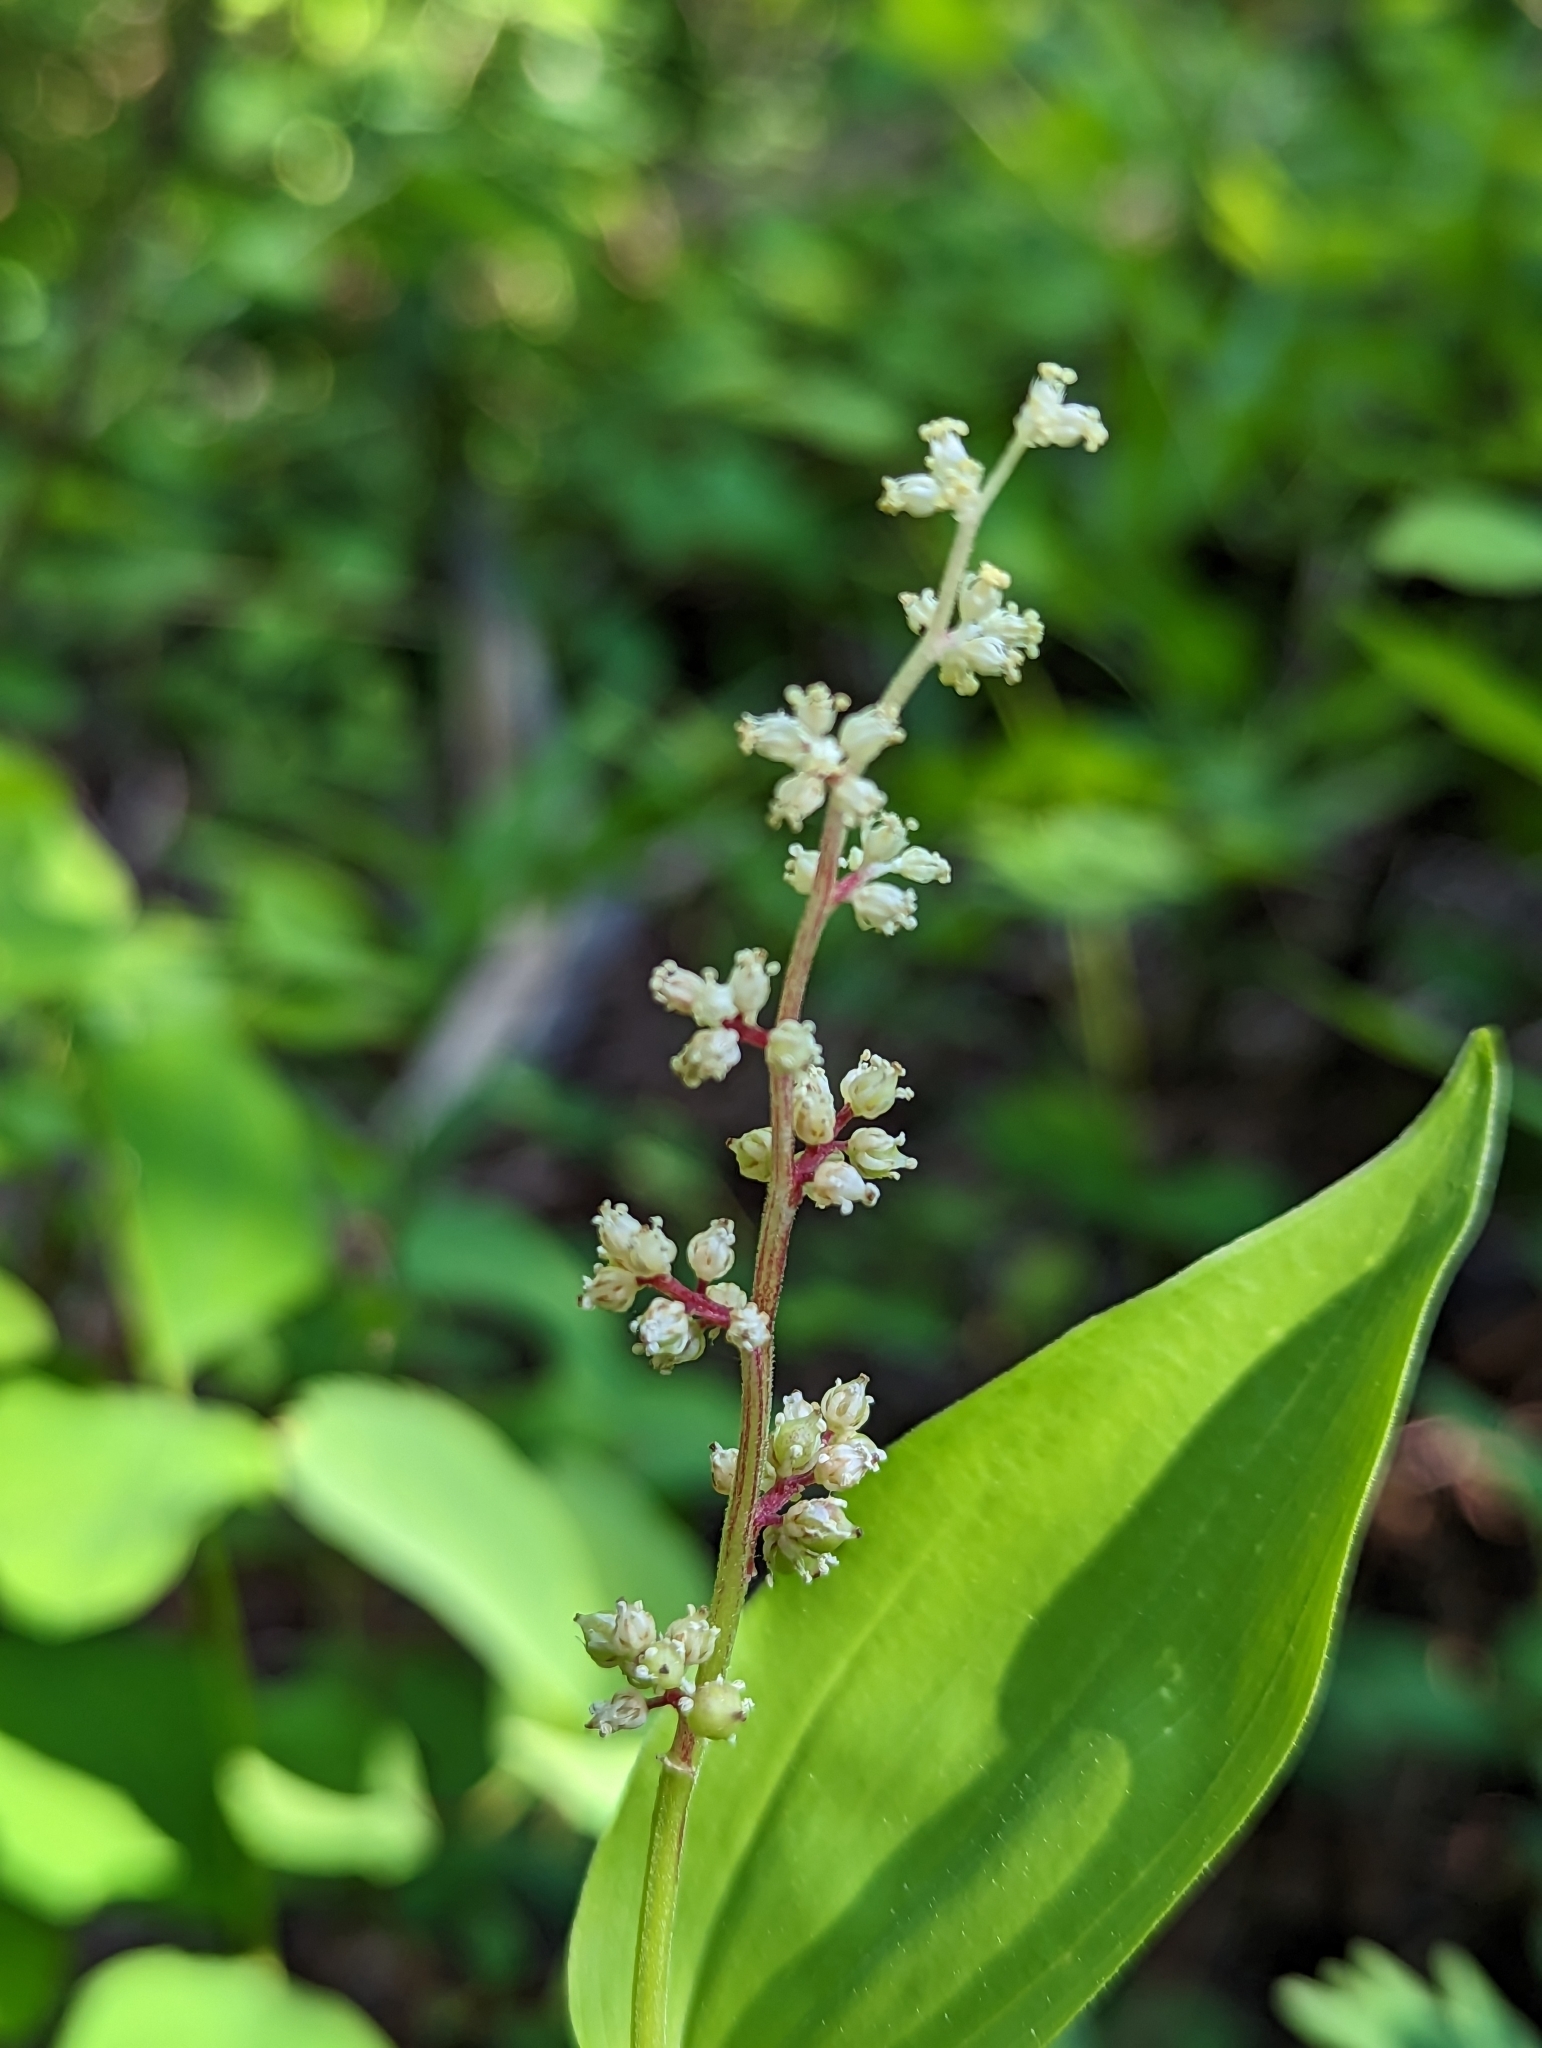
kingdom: Plantae
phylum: Tracheophyta
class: Liliopsida
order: Asparagales
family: Asparagaceae
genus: Maianthemum
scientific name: Maianthemum racemosum
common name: False spikenard
